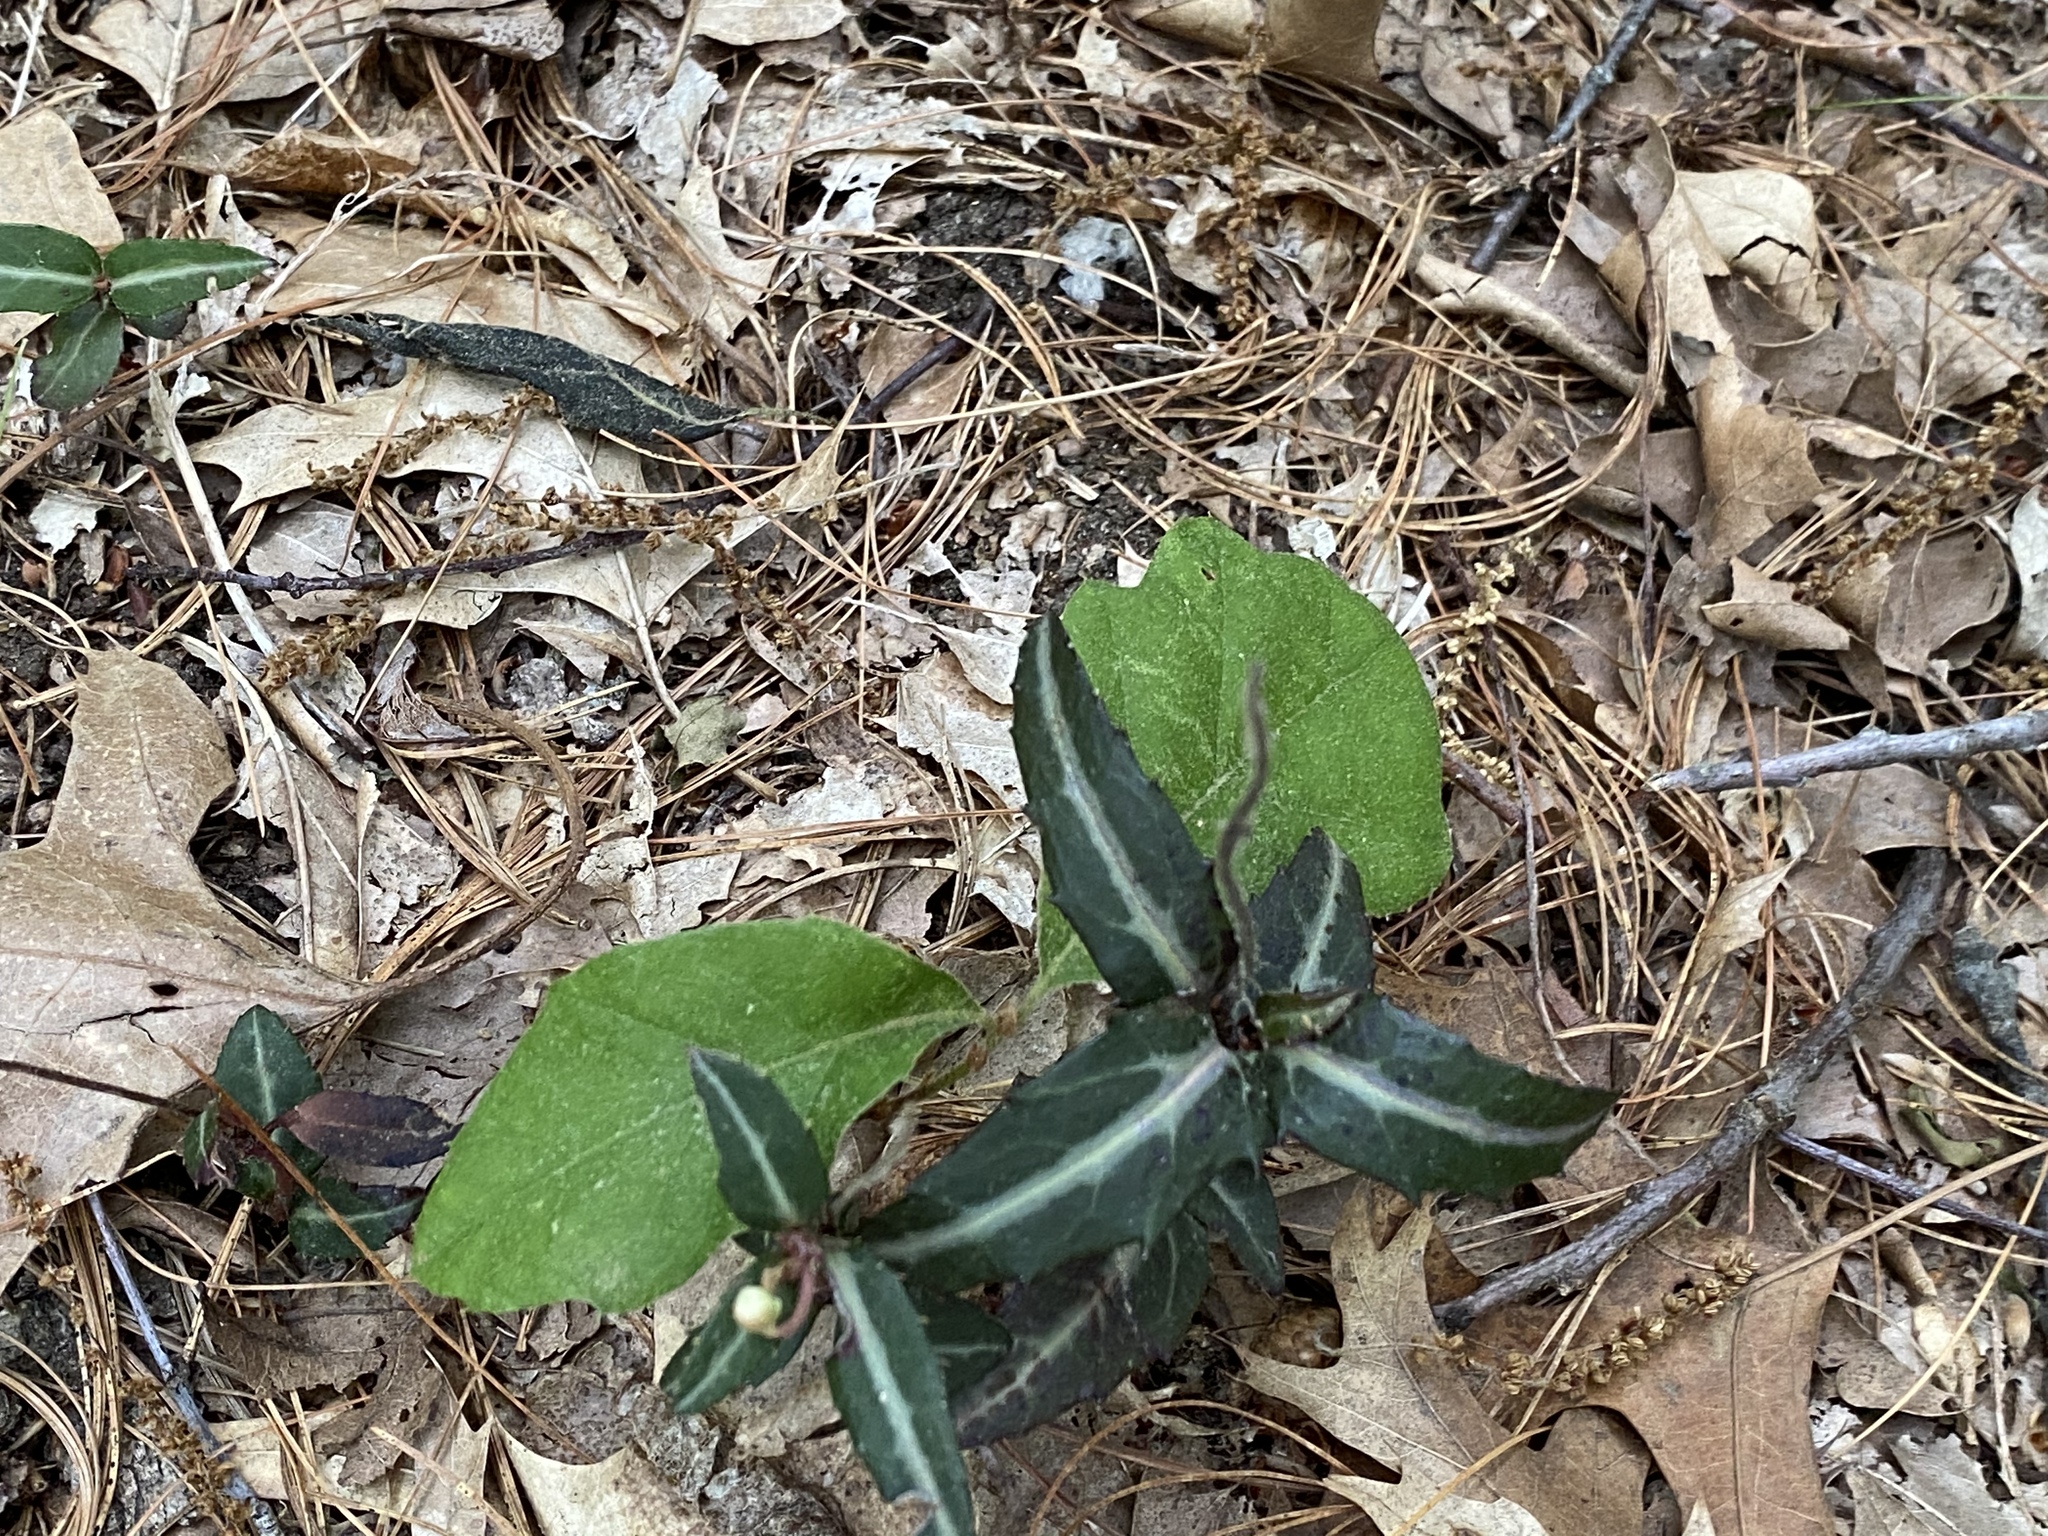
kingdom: Plantae
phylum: Tracheophyta
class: Magnoliopsida
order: Ericales
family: Ericaceae
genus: Chimaphila
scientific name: Chimaphila maculata
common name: Spotted pipsissewa
